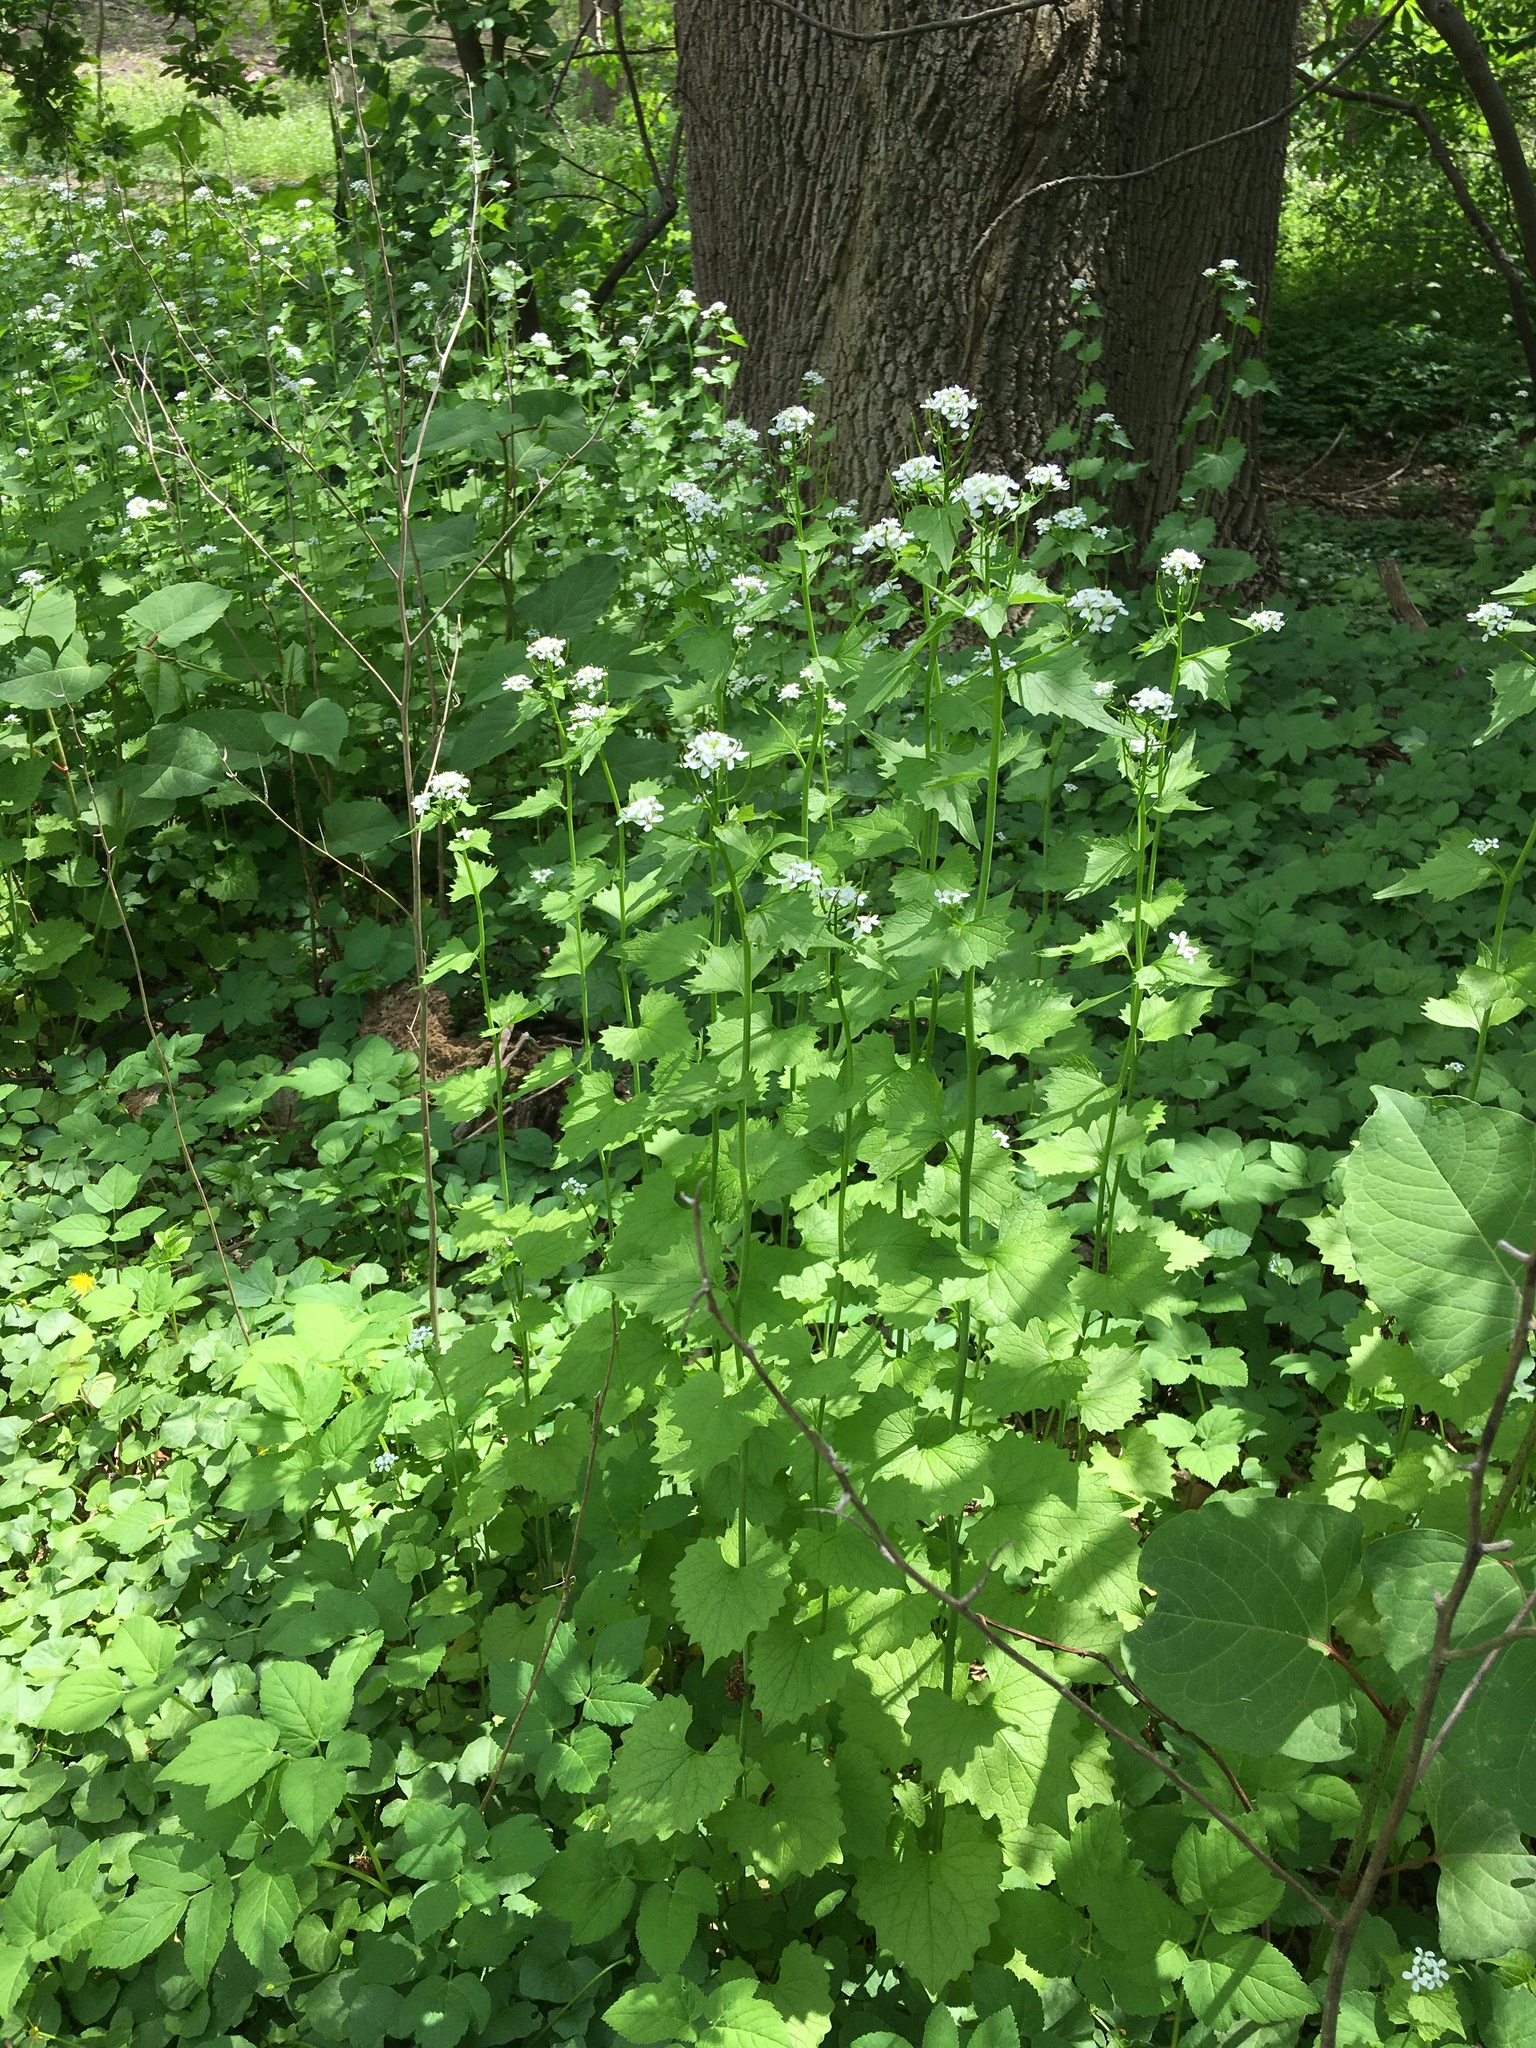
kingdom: Plantae
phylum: Tracheophyta
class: Magnoliopsida
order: Brassicales
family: Brassicaceae
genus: Alliaria
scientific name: Alliaria petiolata
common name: Garlic mustard
